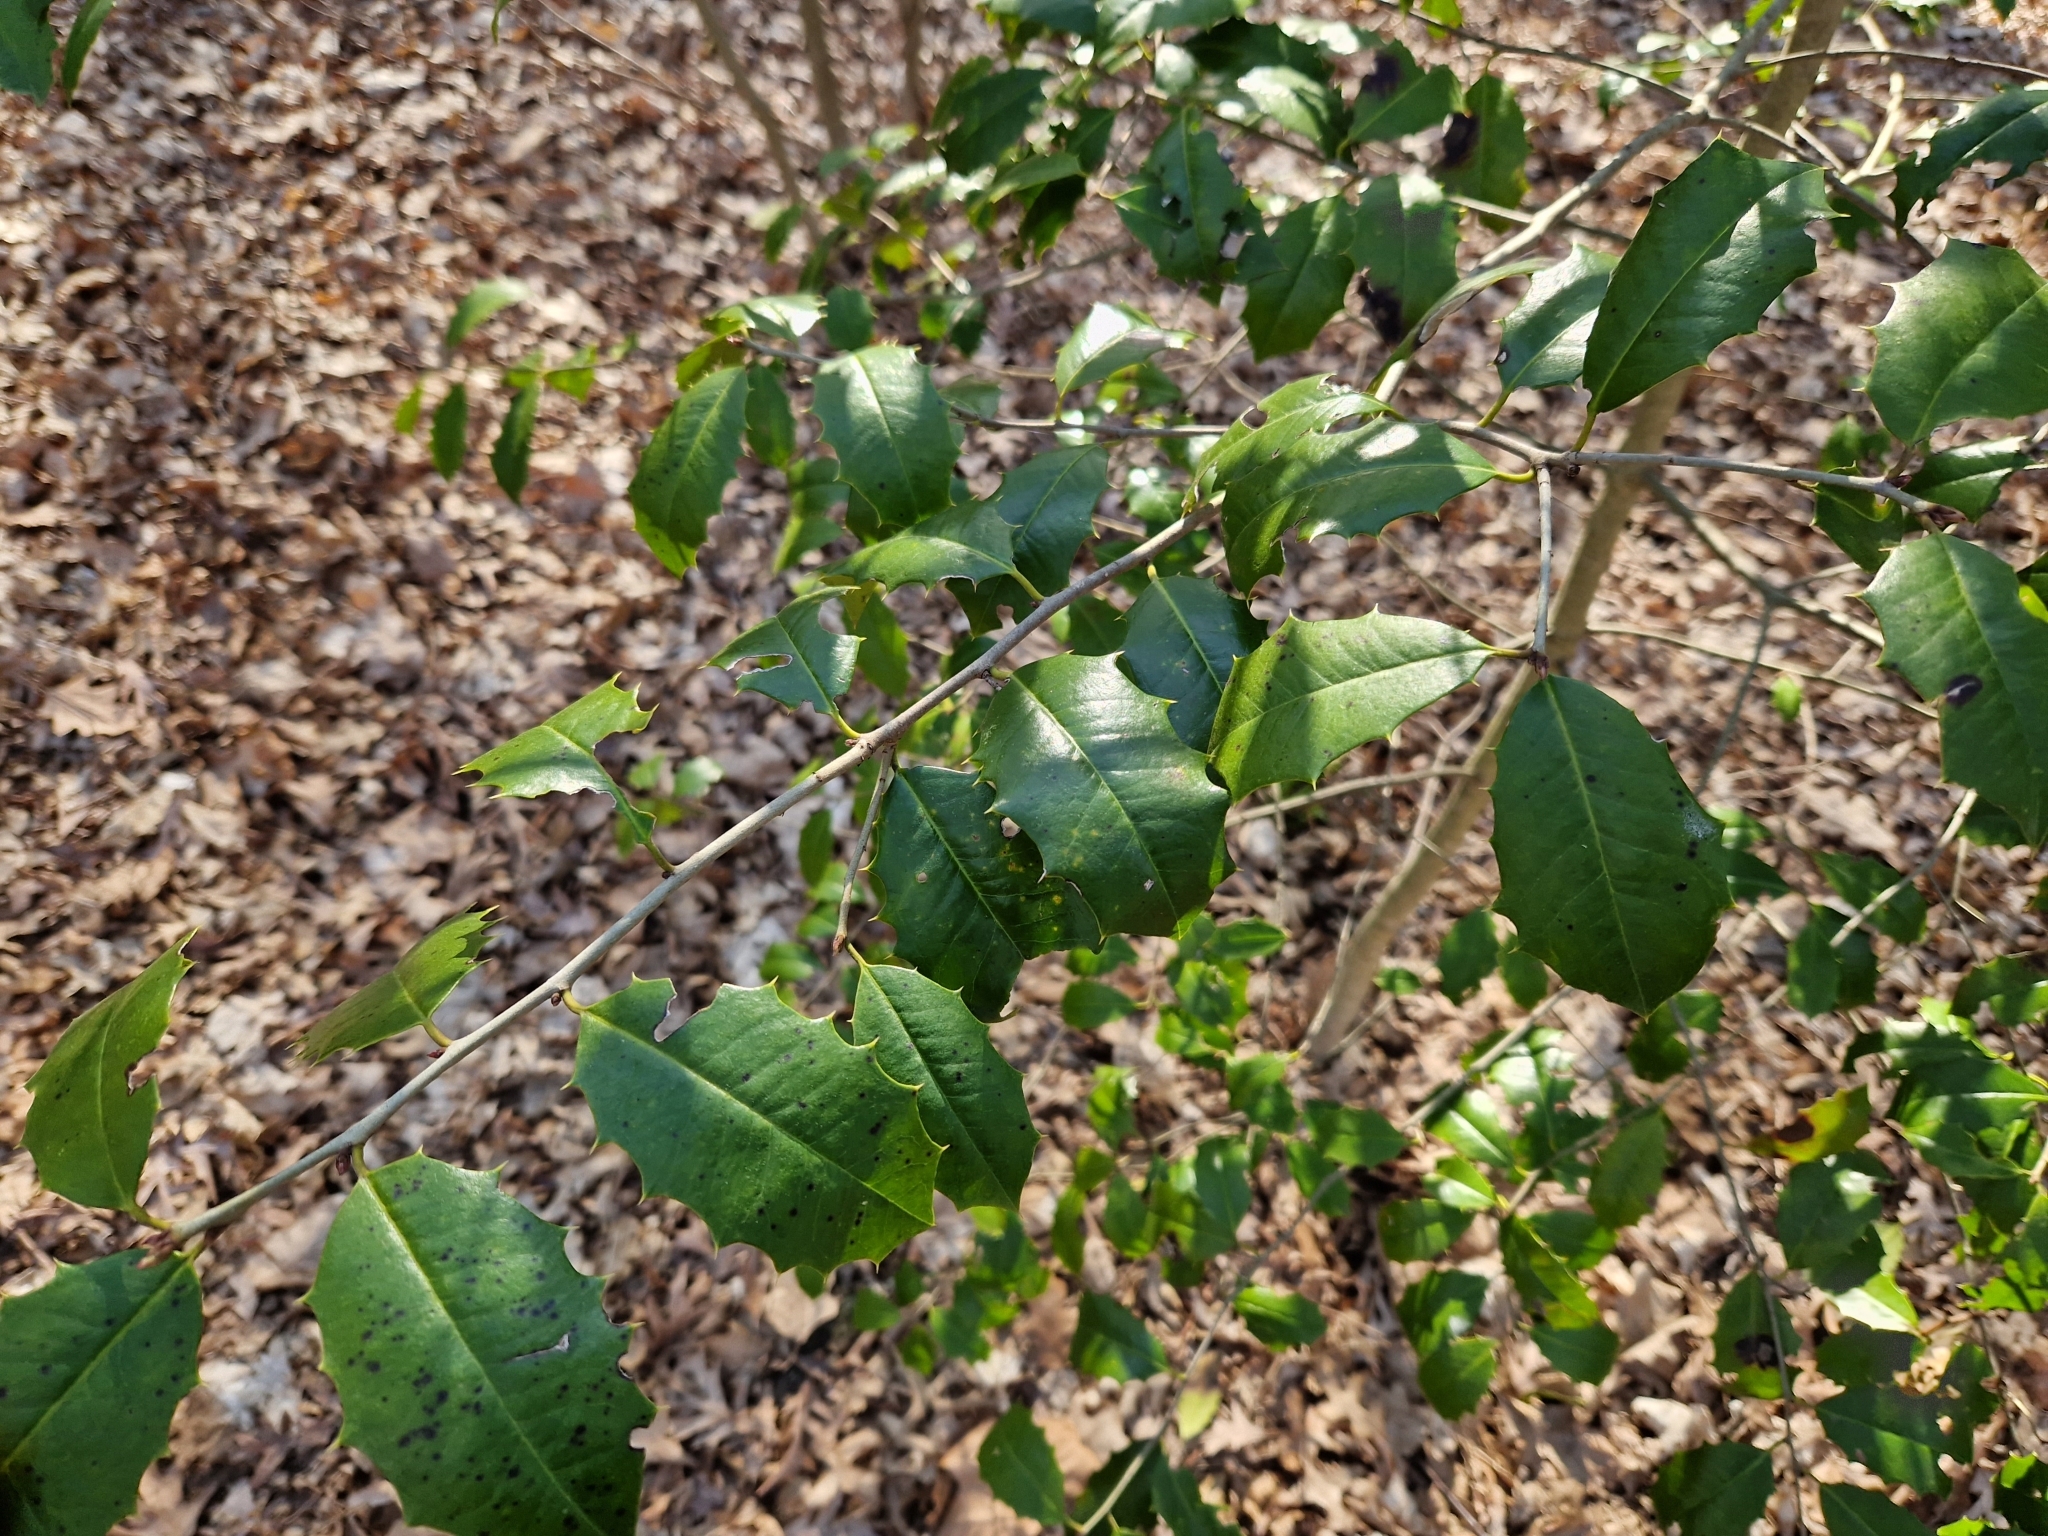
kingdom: Plantae
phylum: Tracheophyta
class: Magnoliopsida
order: Aquifoliales
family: Aquifoliaceae
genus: Ilex
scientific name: Ilex opaca
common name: American holly
